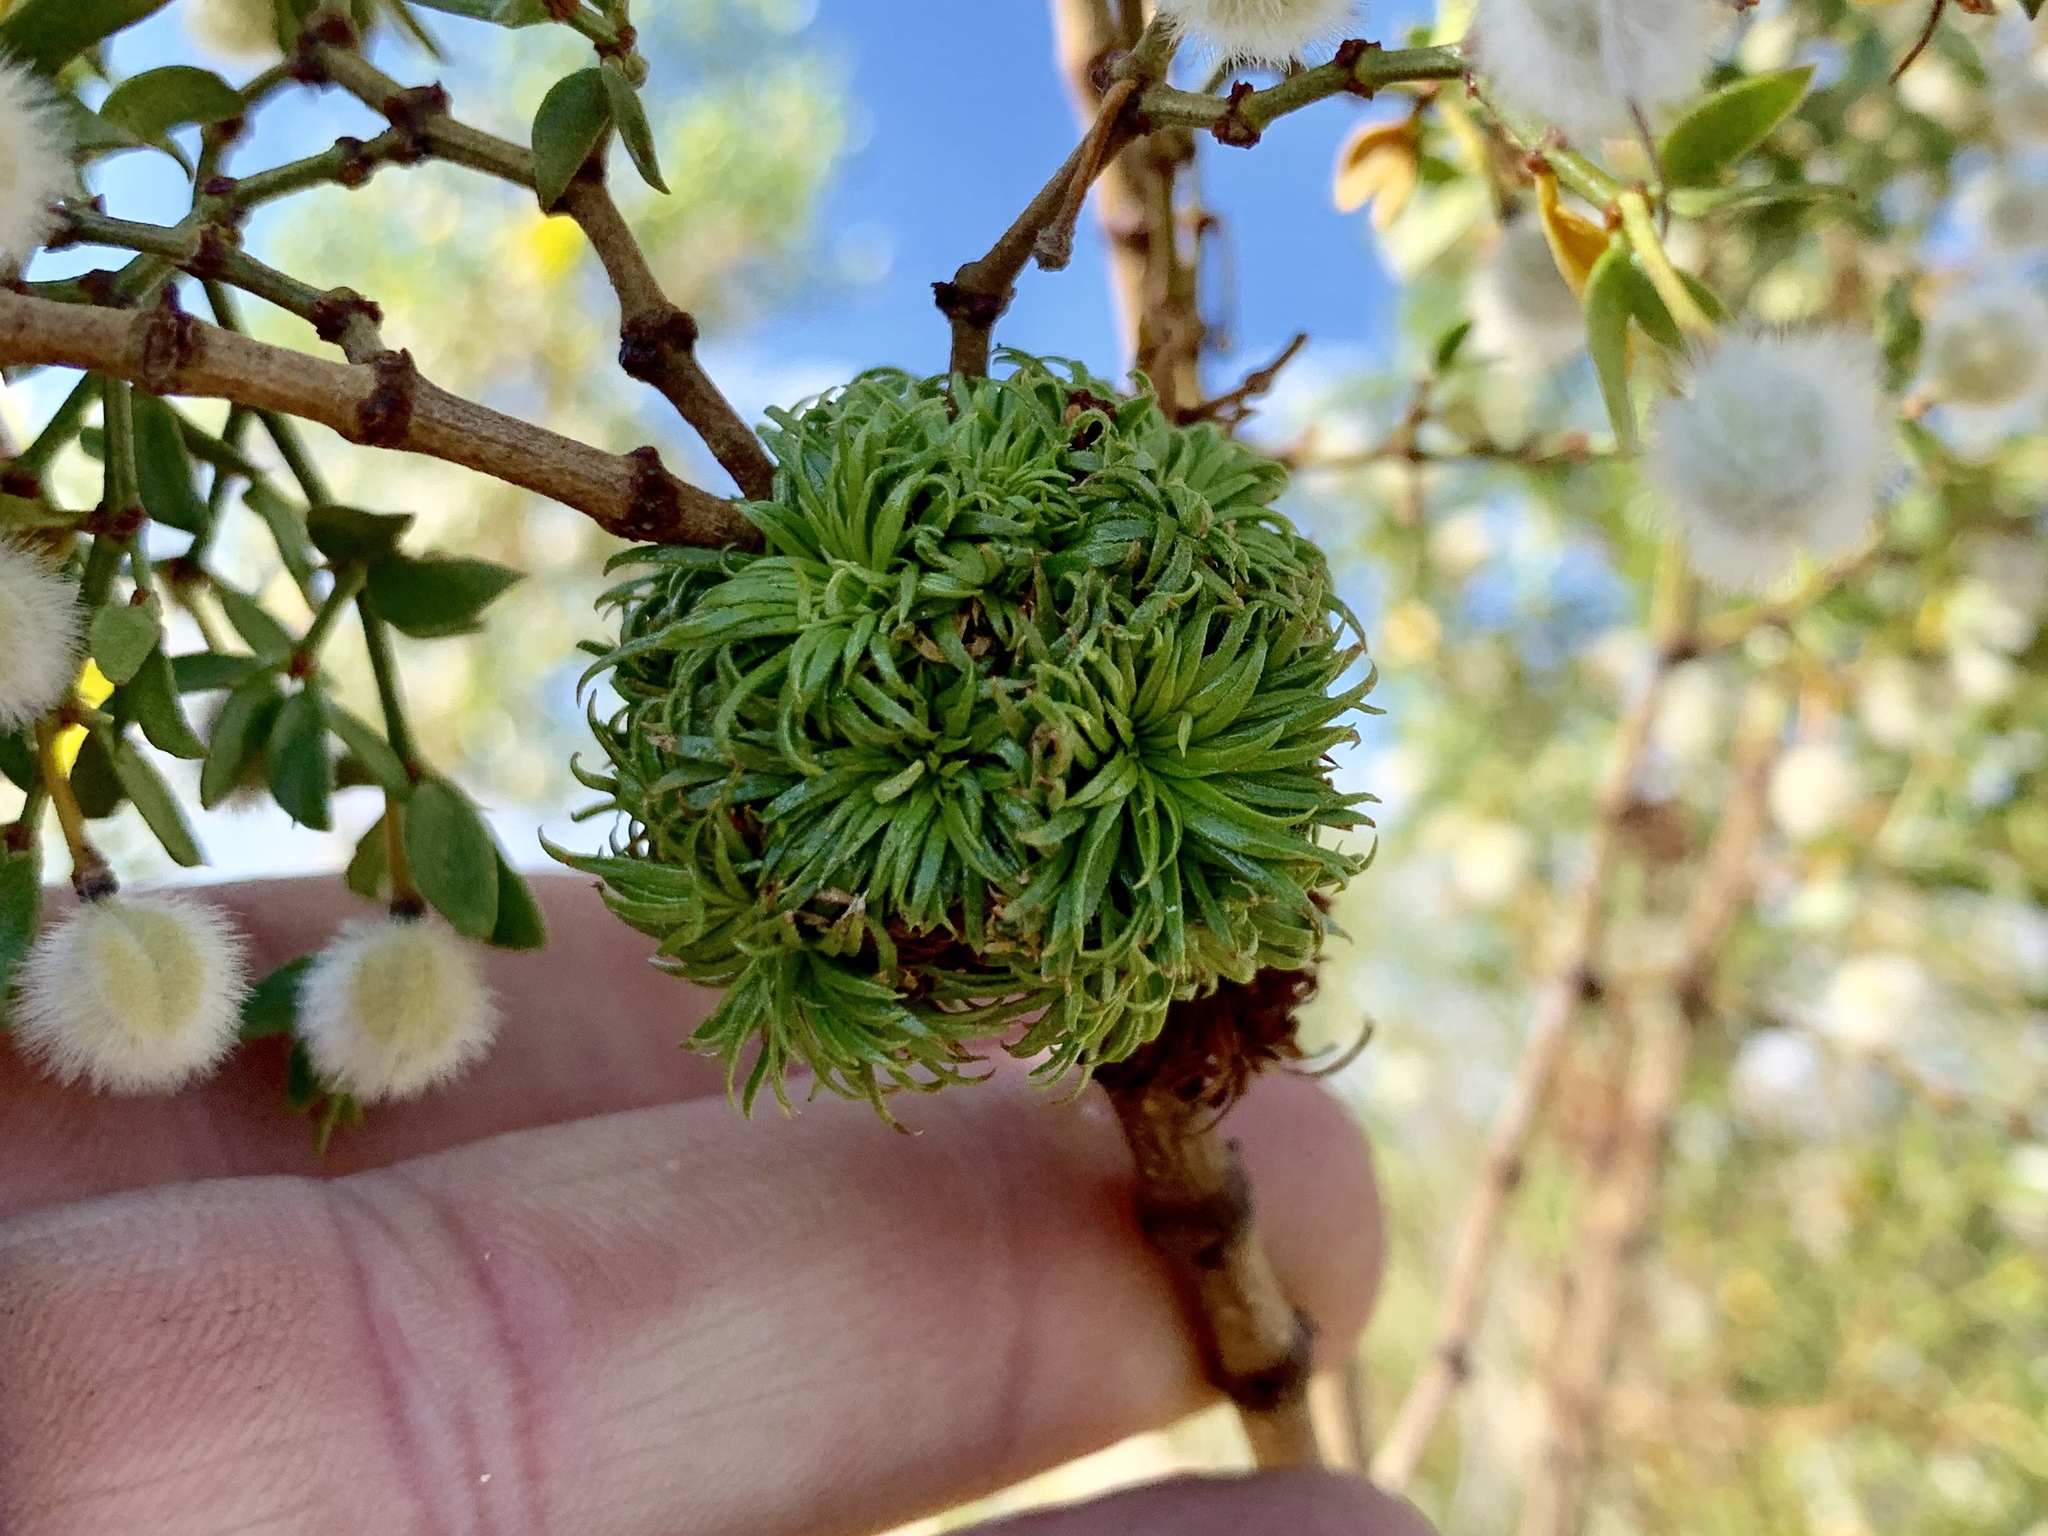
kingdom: Animalia
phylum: Arthropoda
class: Insecta
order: Diptera
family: Cecidomyiidae
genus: Asphondylia
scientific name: Asphondylia auripila
